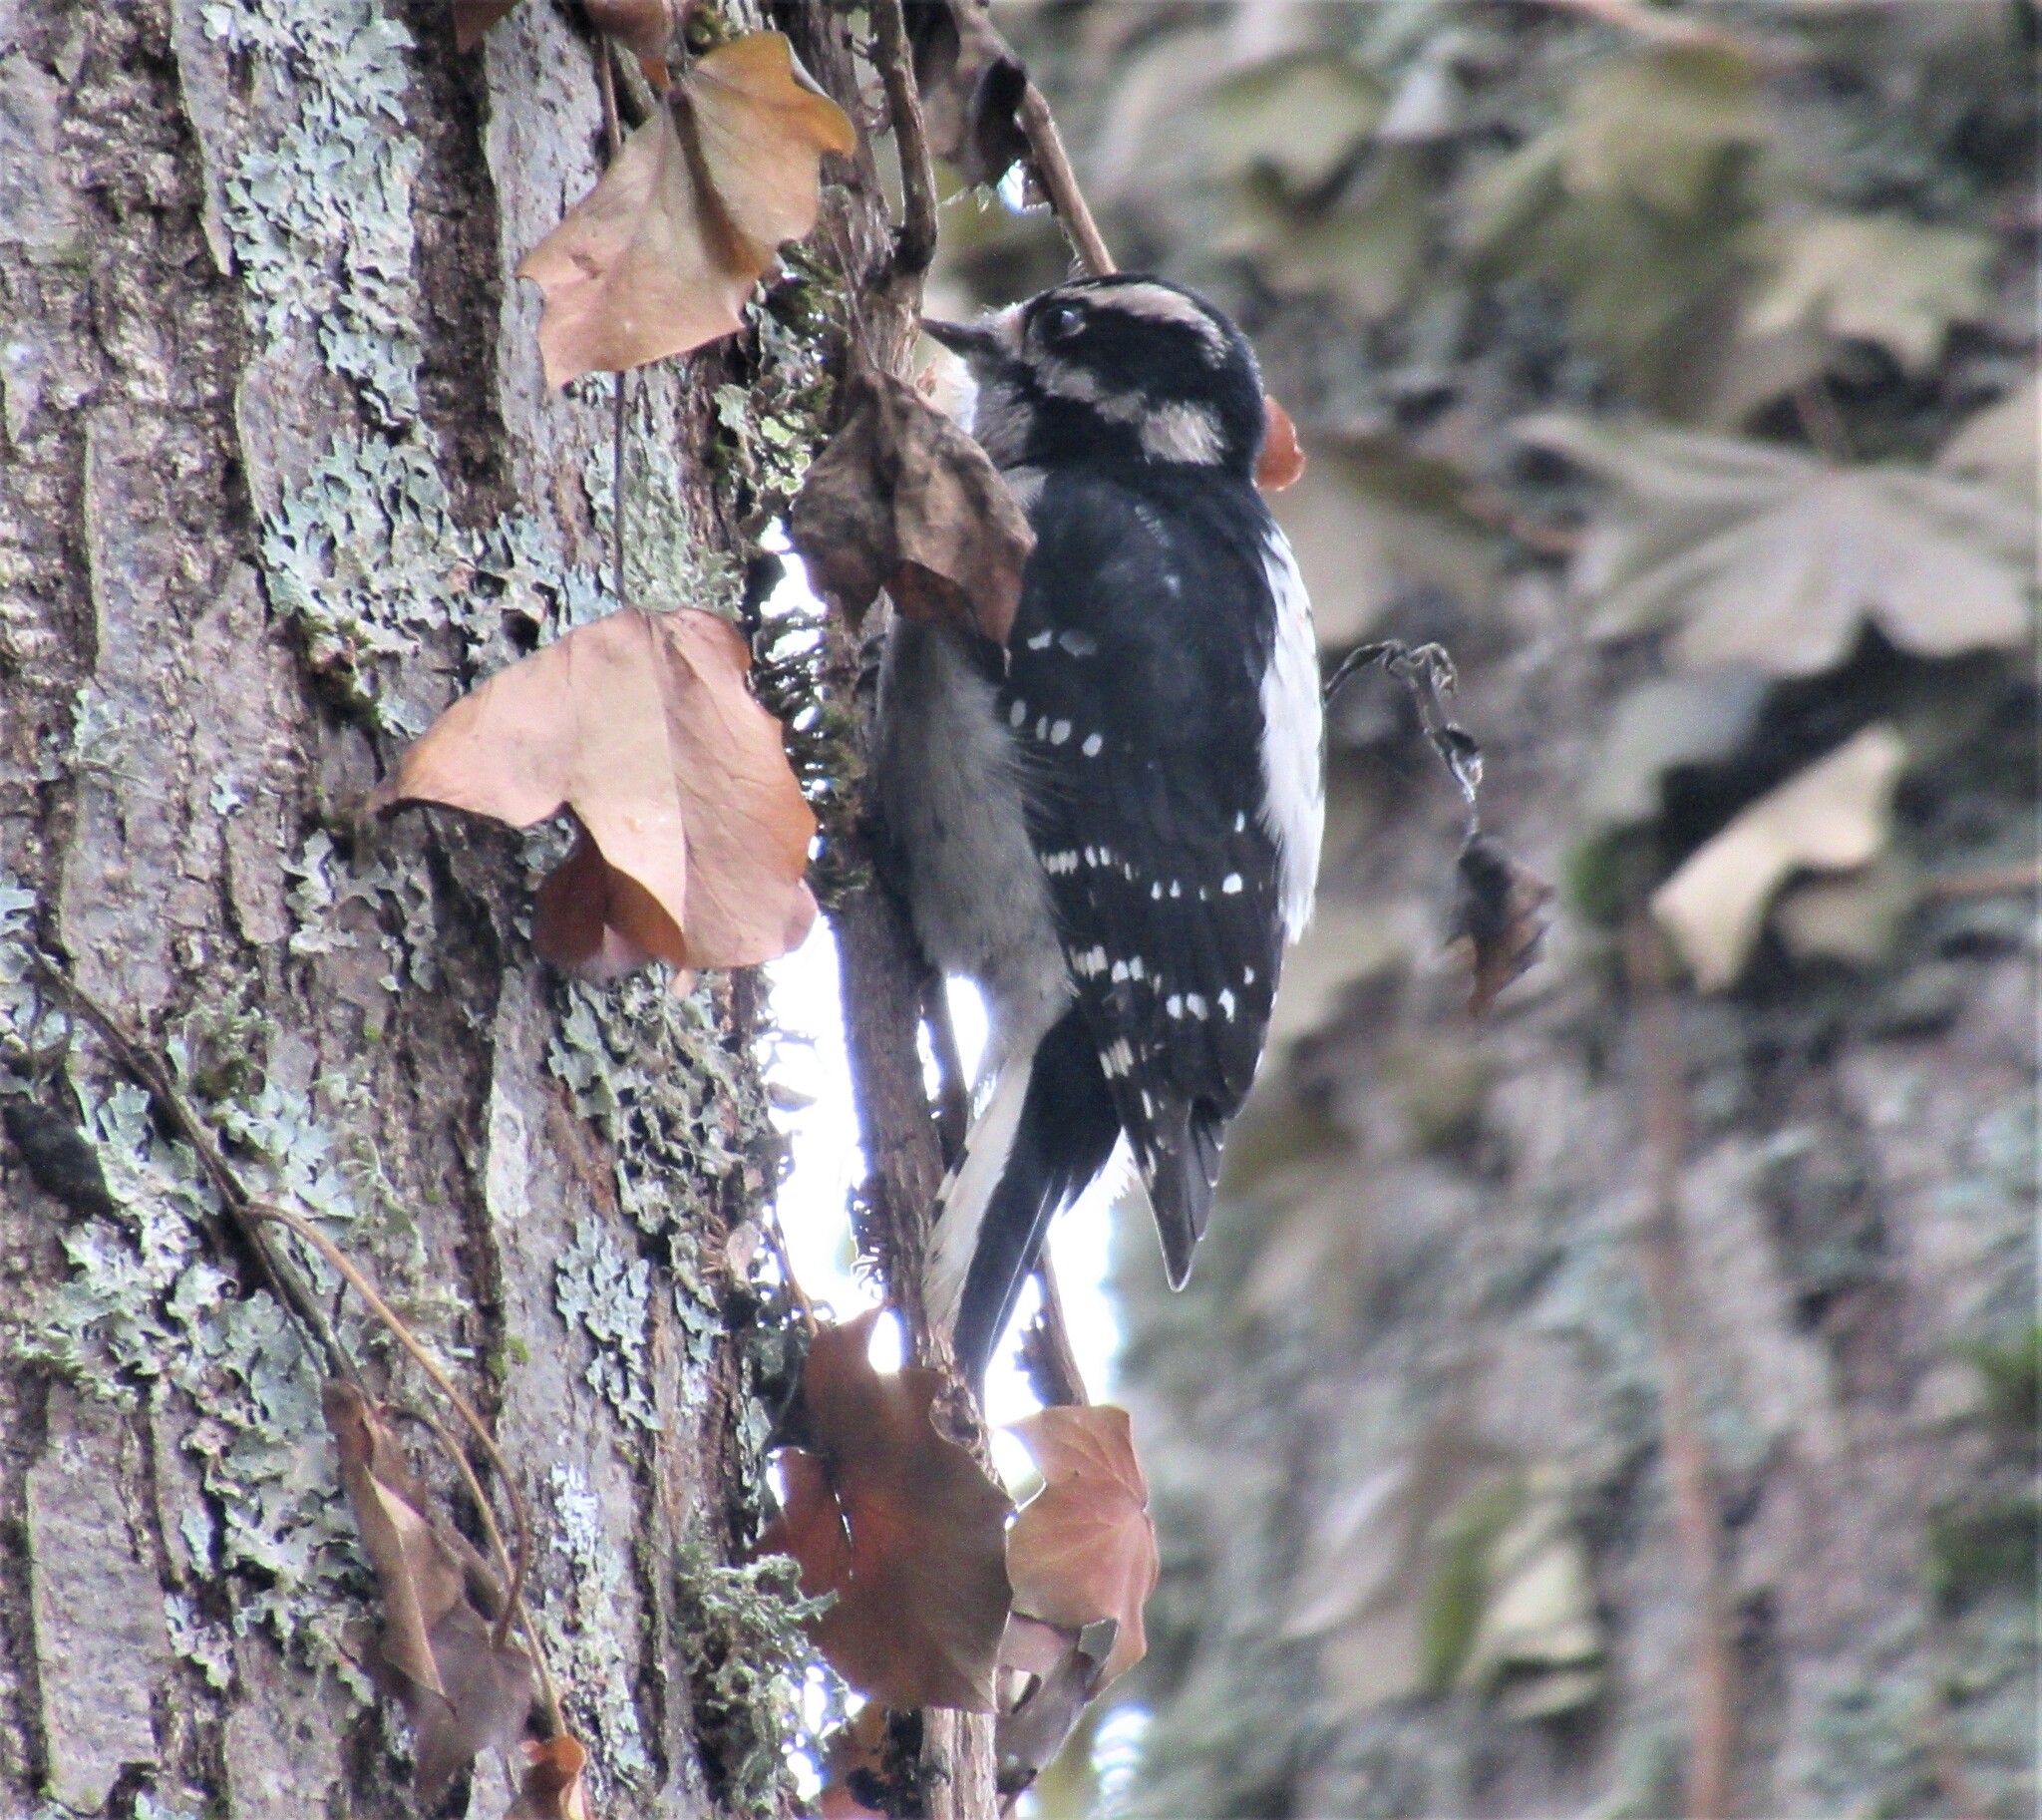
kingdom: Animalia
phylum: Chordata
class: Aves
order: Piciformes
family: Picidae
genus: Dryobates
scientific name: Dryobates pubescens
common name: Downy woodpecker
